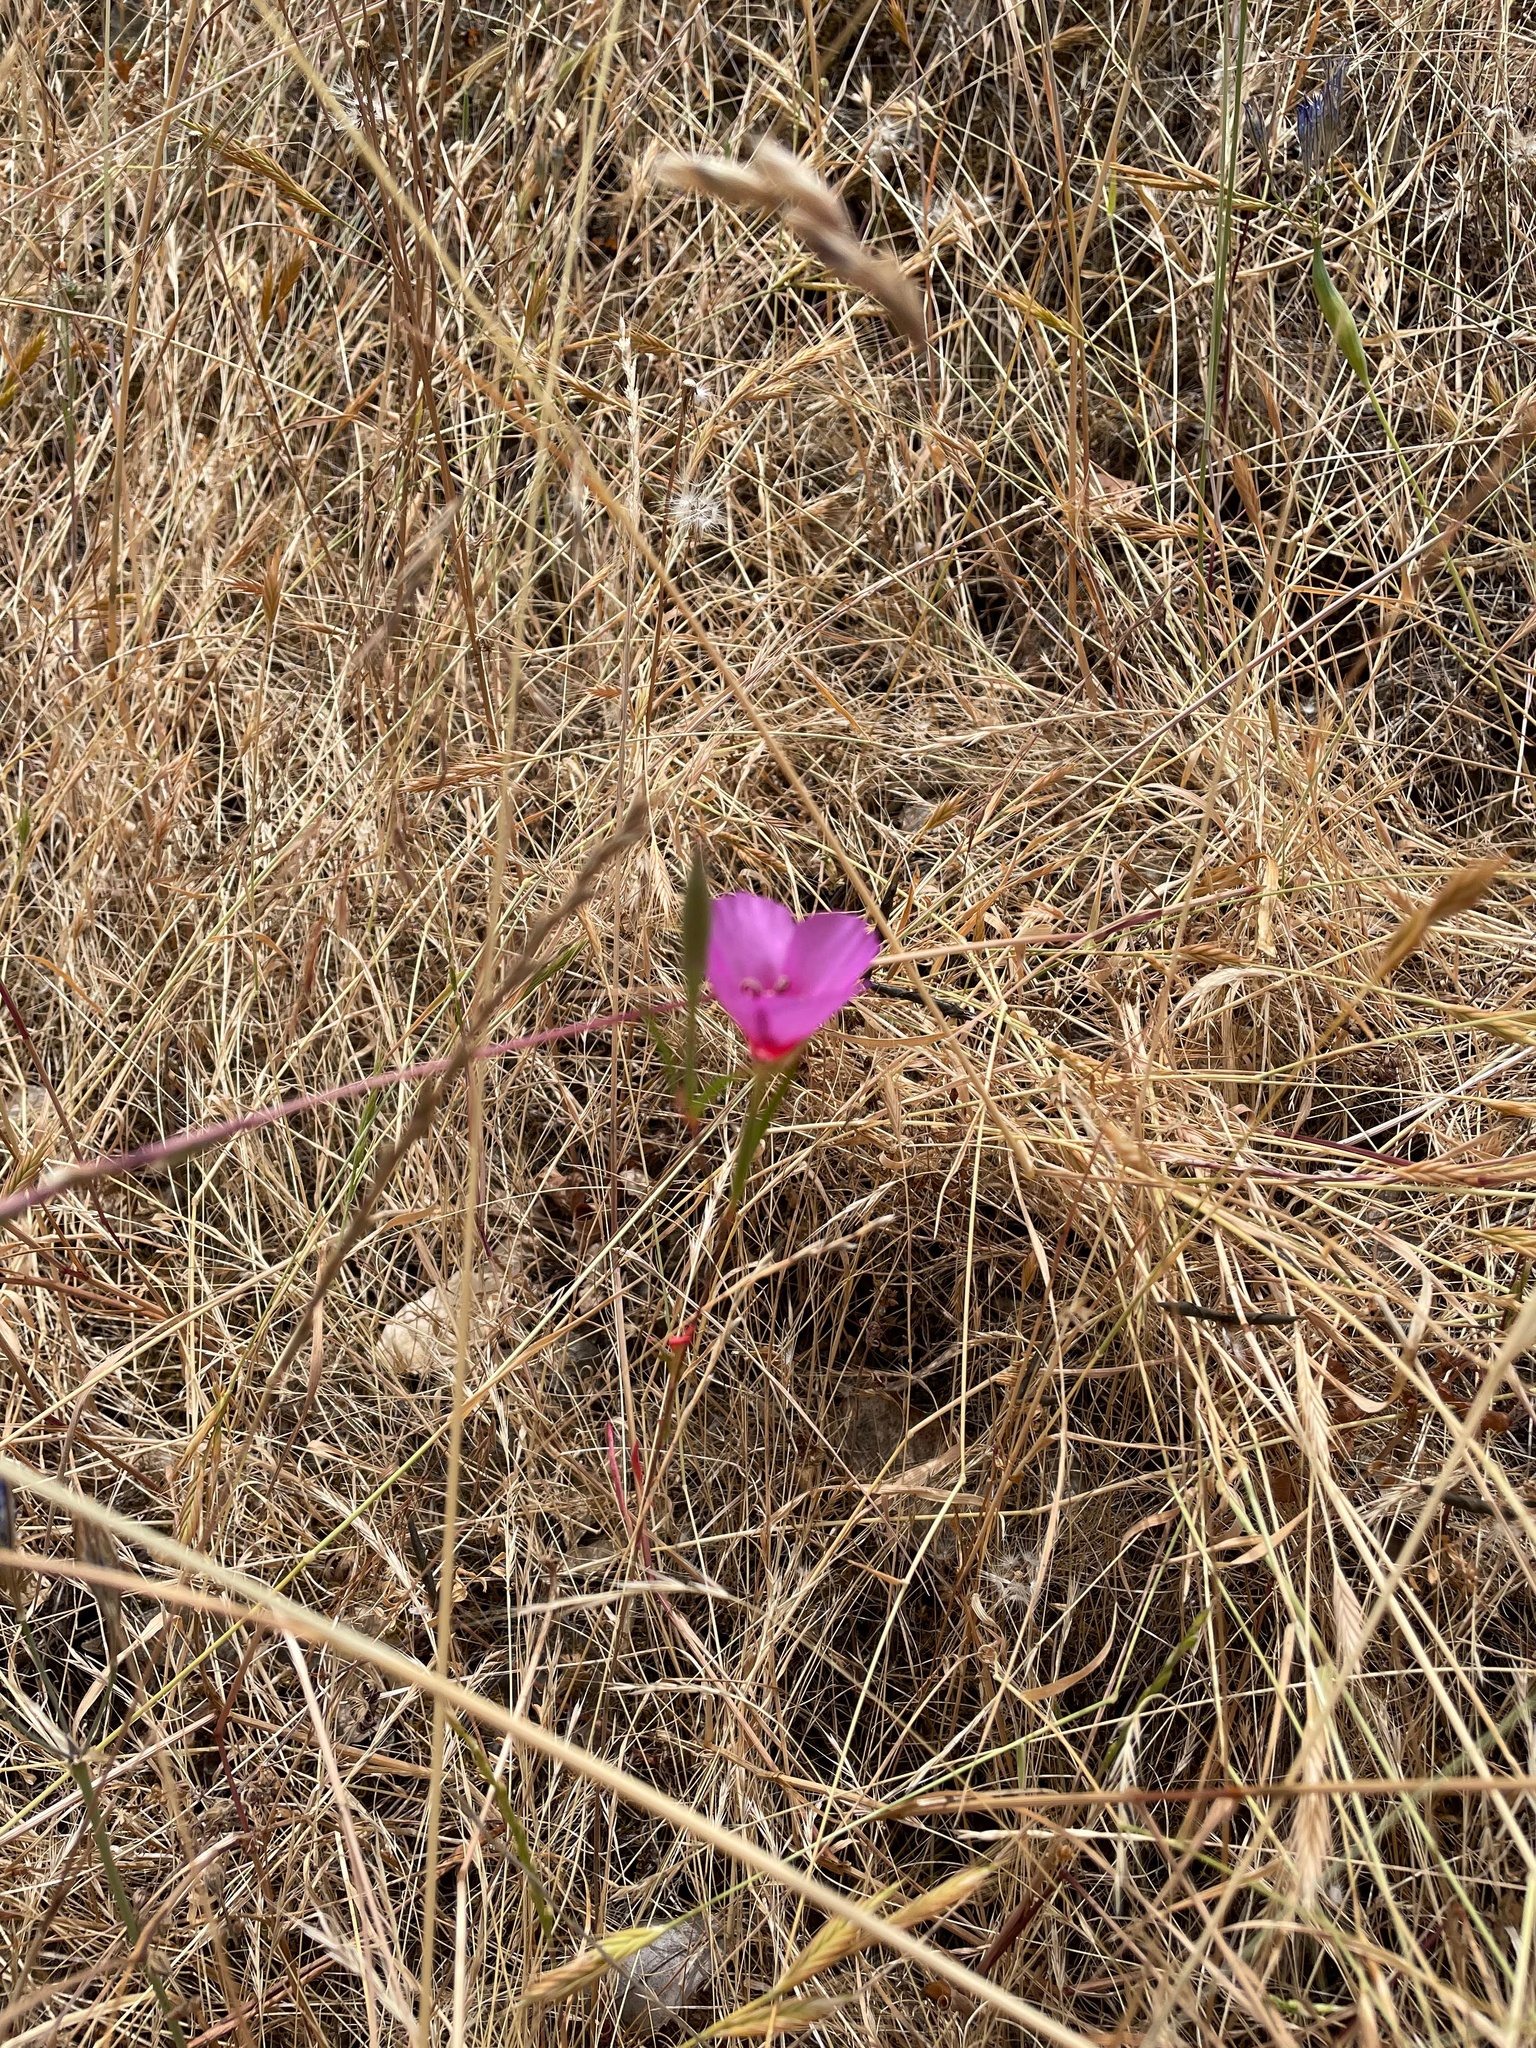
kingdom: Plantae
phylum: Tracheophyta
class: Magnoliopsida
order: Myrtales
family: Onagraceae
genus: Clarkia
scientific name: Clarkia rubicunda
